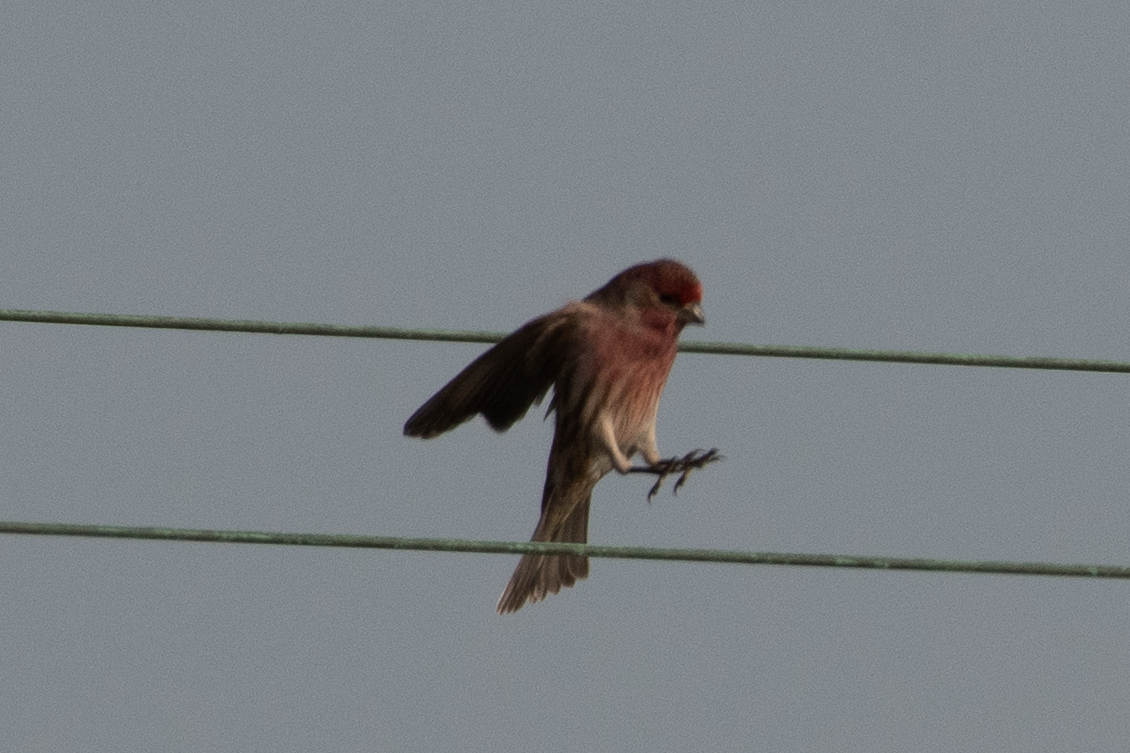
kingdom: Animalia
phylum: Chordata
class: Aves
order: Passeriformes
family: Fringillidae
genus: Haemorhous
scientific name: Haemorhous mexicanus
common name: House finch
